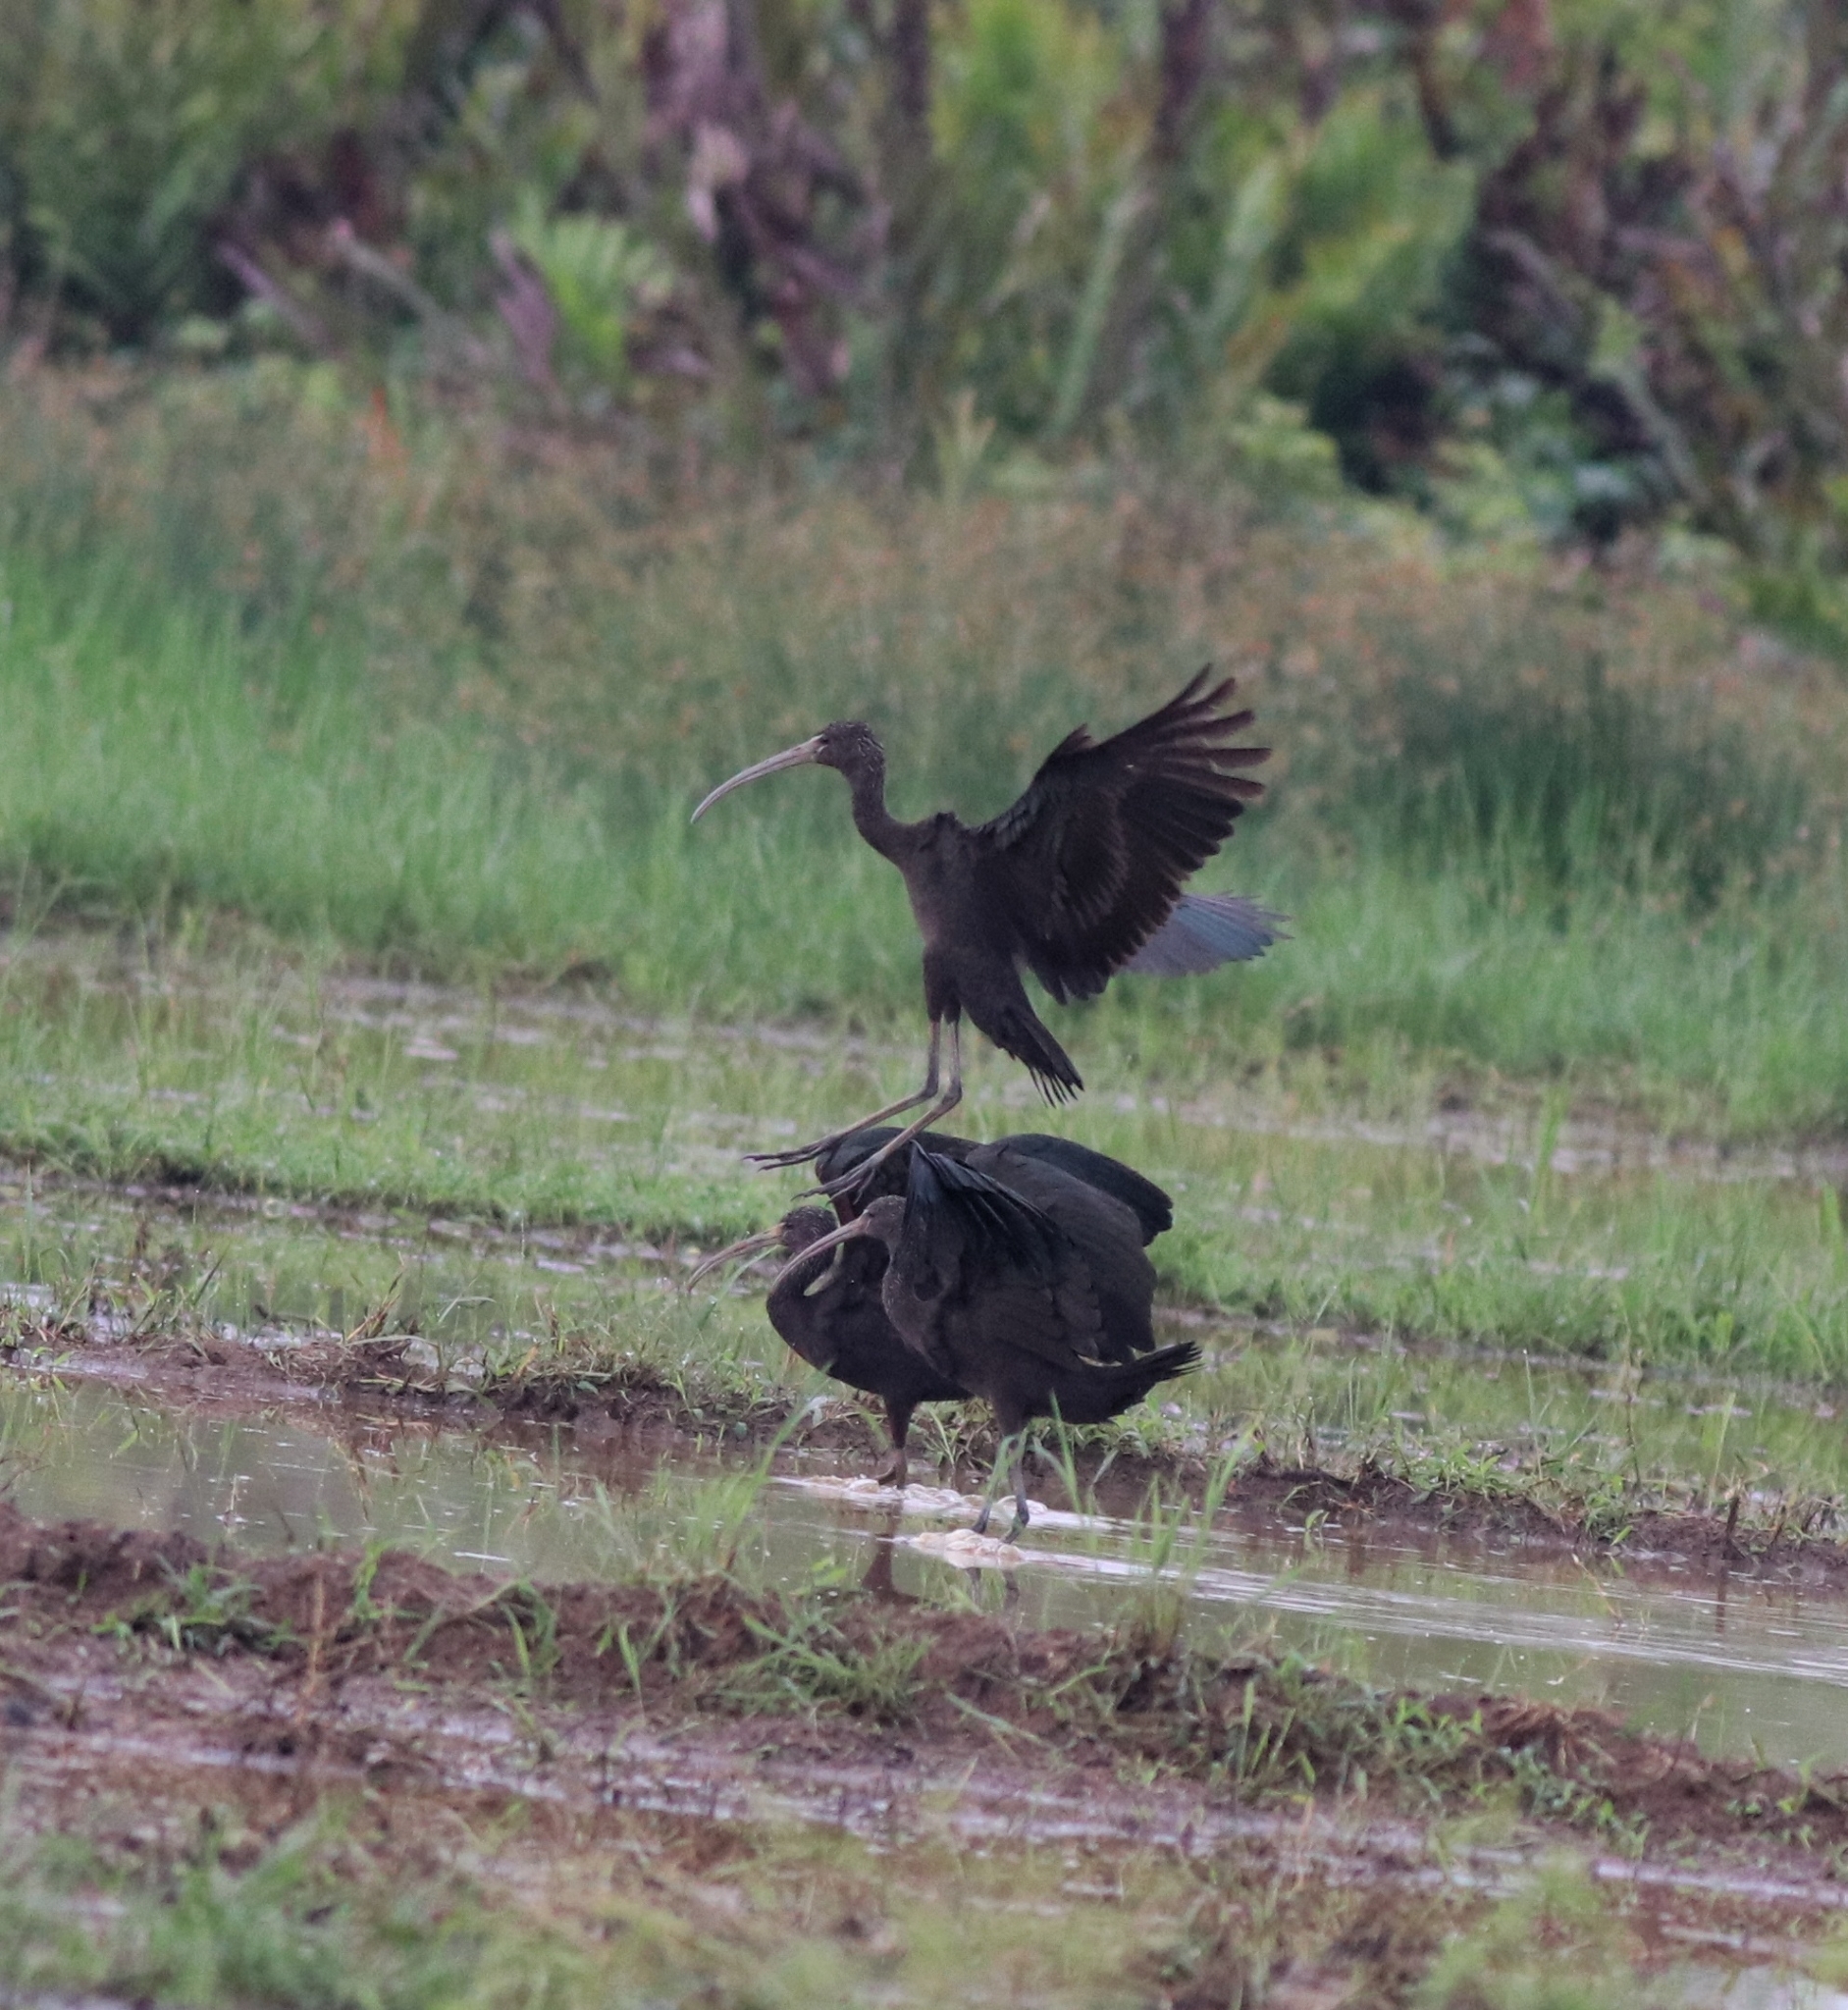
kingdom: Animalia
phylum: Chordata
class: Aves
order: Pelecaniformes
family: Threskiornithidae
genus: Plegadis
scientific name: Plegadis falcinellus
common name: Glossy ibis
